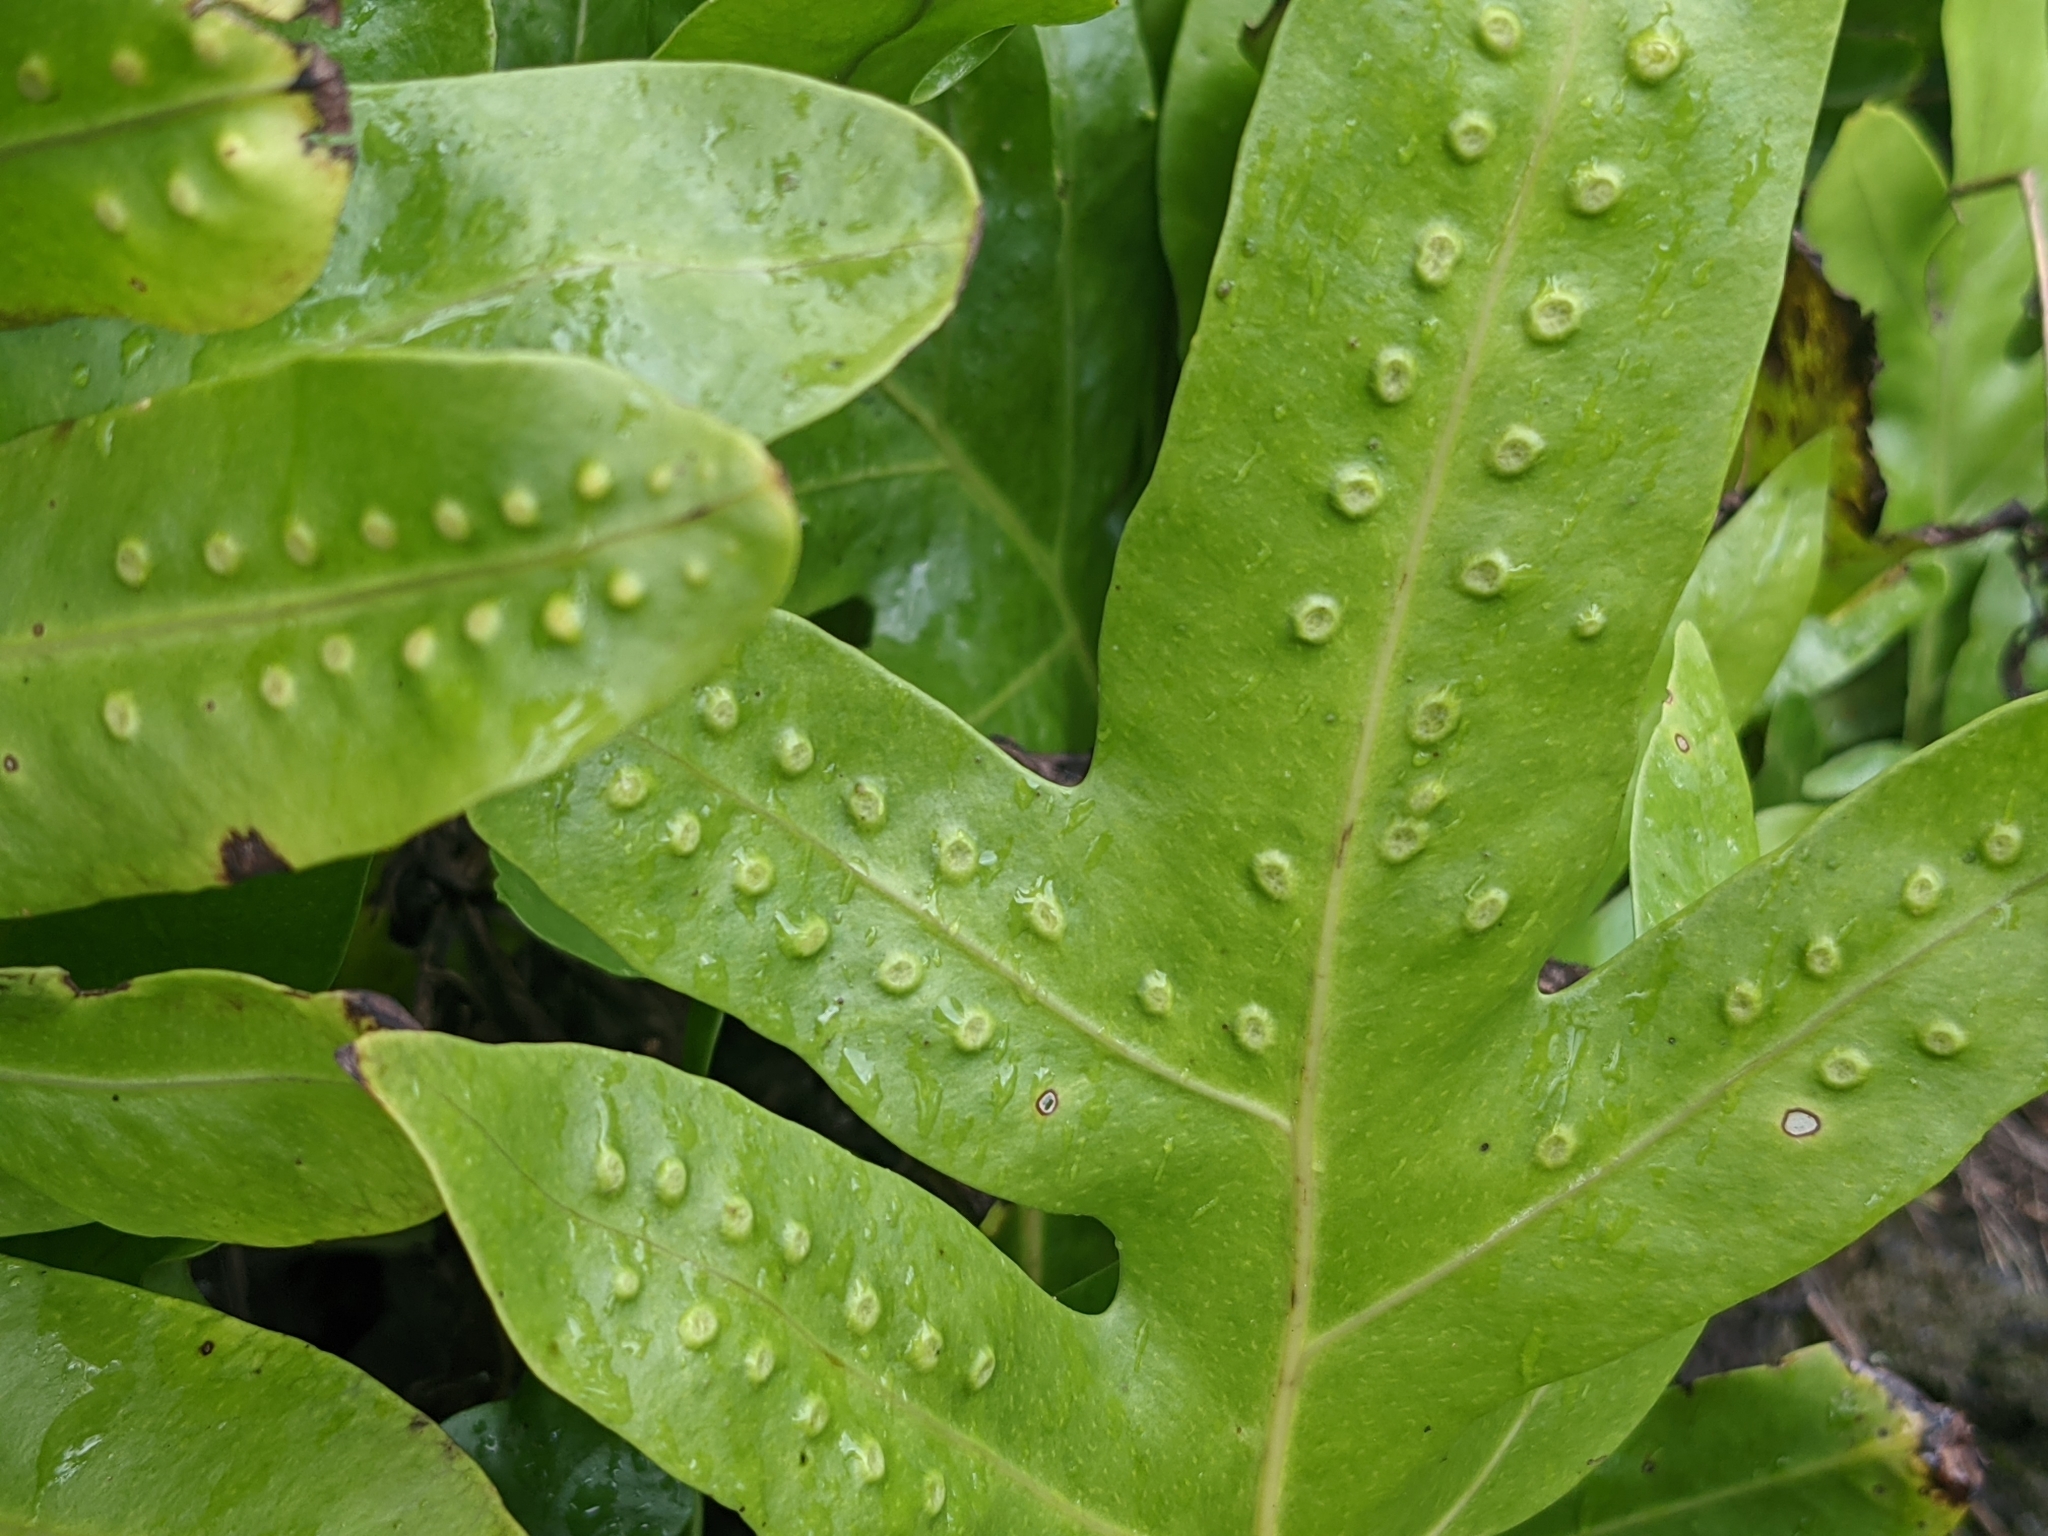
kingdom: Plantae
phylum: Tracheophyta
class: Polypodiopsida
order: Polypodiales
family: Polypodiaceae
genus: Microsorum
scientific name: Microsorum grossum
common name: Musk fern
